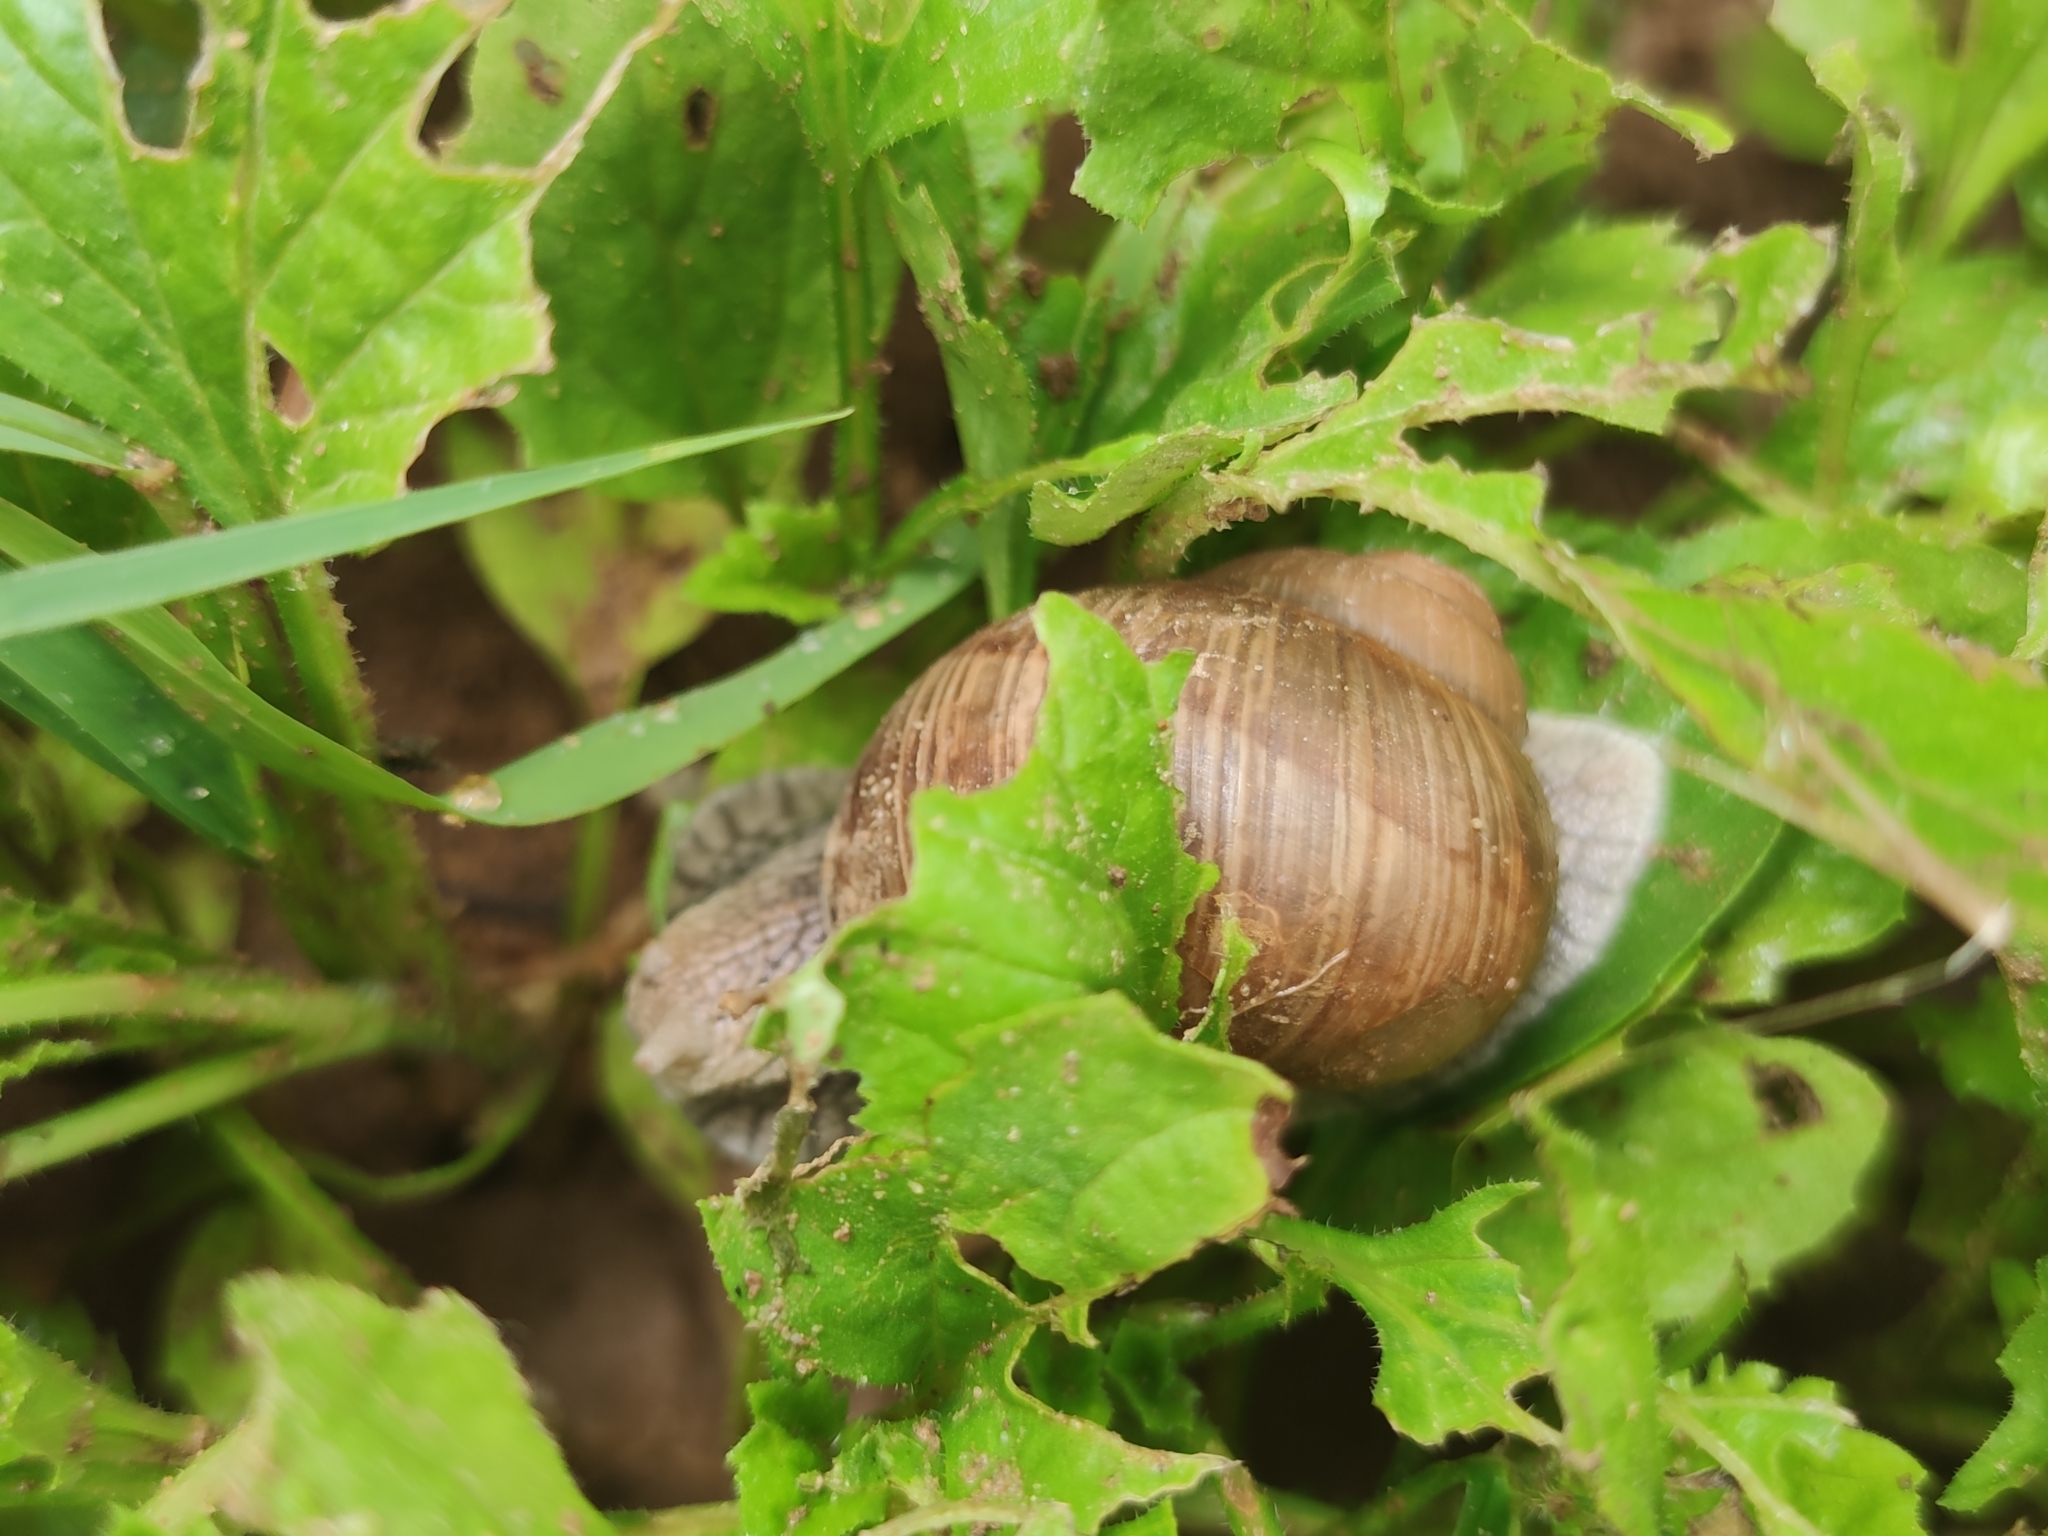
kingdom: Animalia
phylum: Mollusca
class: Gastropoda
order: Stylommatophora
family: Helicidae
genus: Helix
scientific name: Helix pomatia
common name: Roman snail
